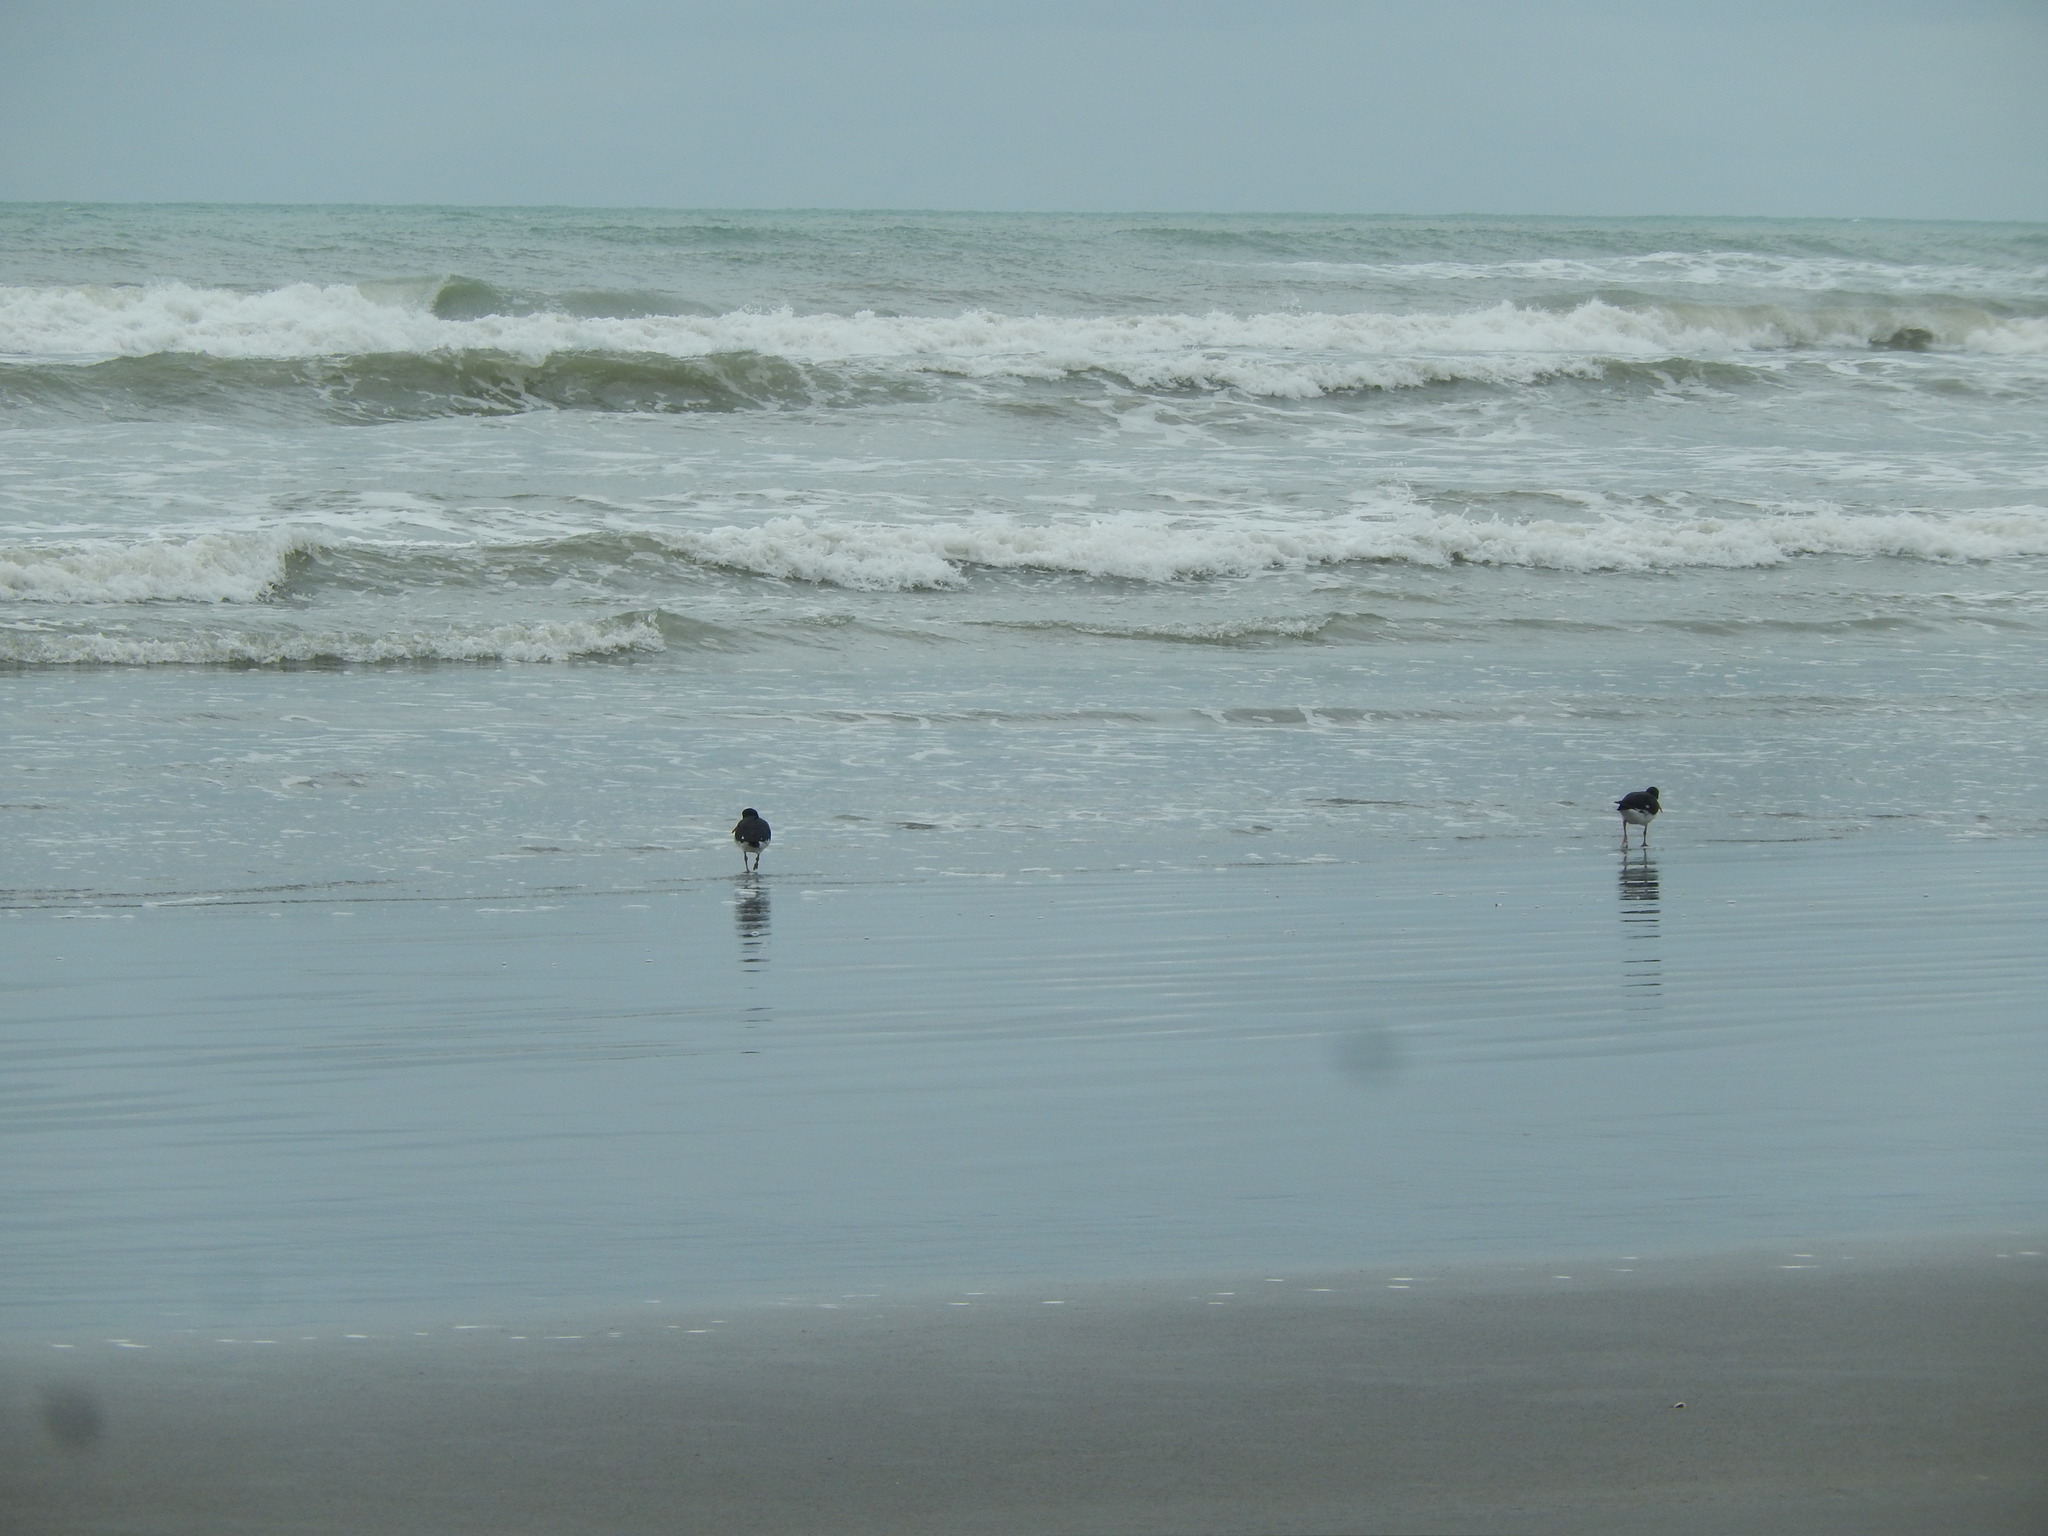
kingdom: Animalia
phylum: Chordata
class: Aves
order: Charadriiformes
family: Haematopodidae
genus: Haematopus
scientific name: Haematopus finschi
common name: South island oystercatcher
